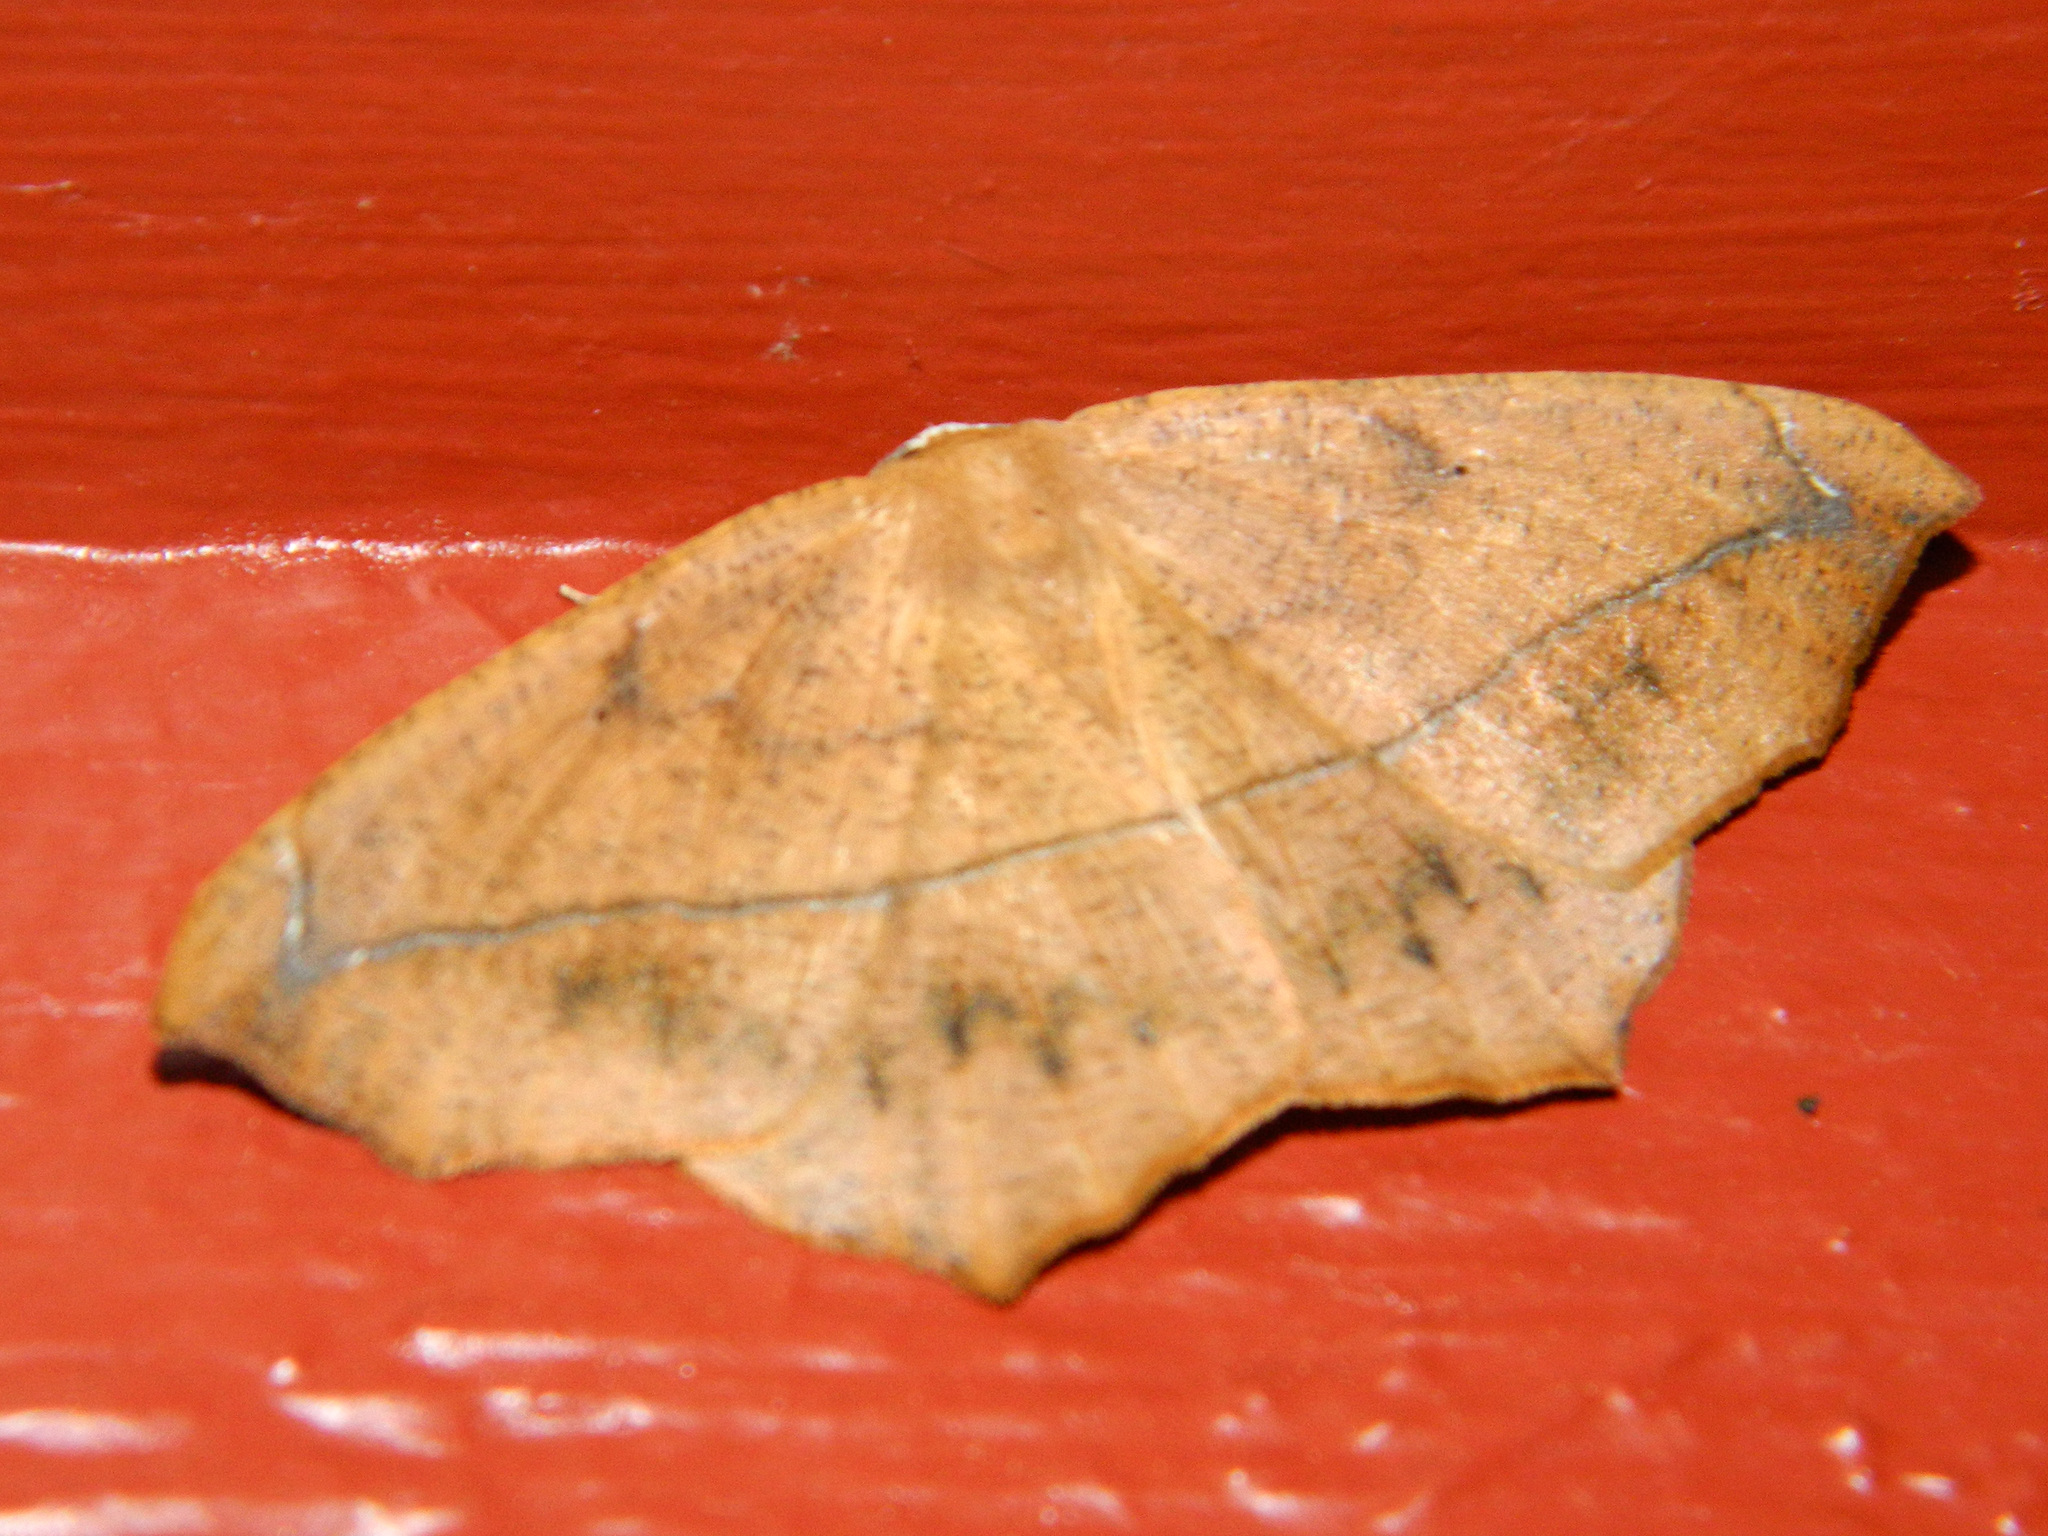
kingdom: Animalia
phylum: Arthropoda
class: Insecta
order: Lepidoptera
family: Geometridae
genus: Prochoerodes
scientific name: Prochoerodes lineola
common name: Large maple spanworm
